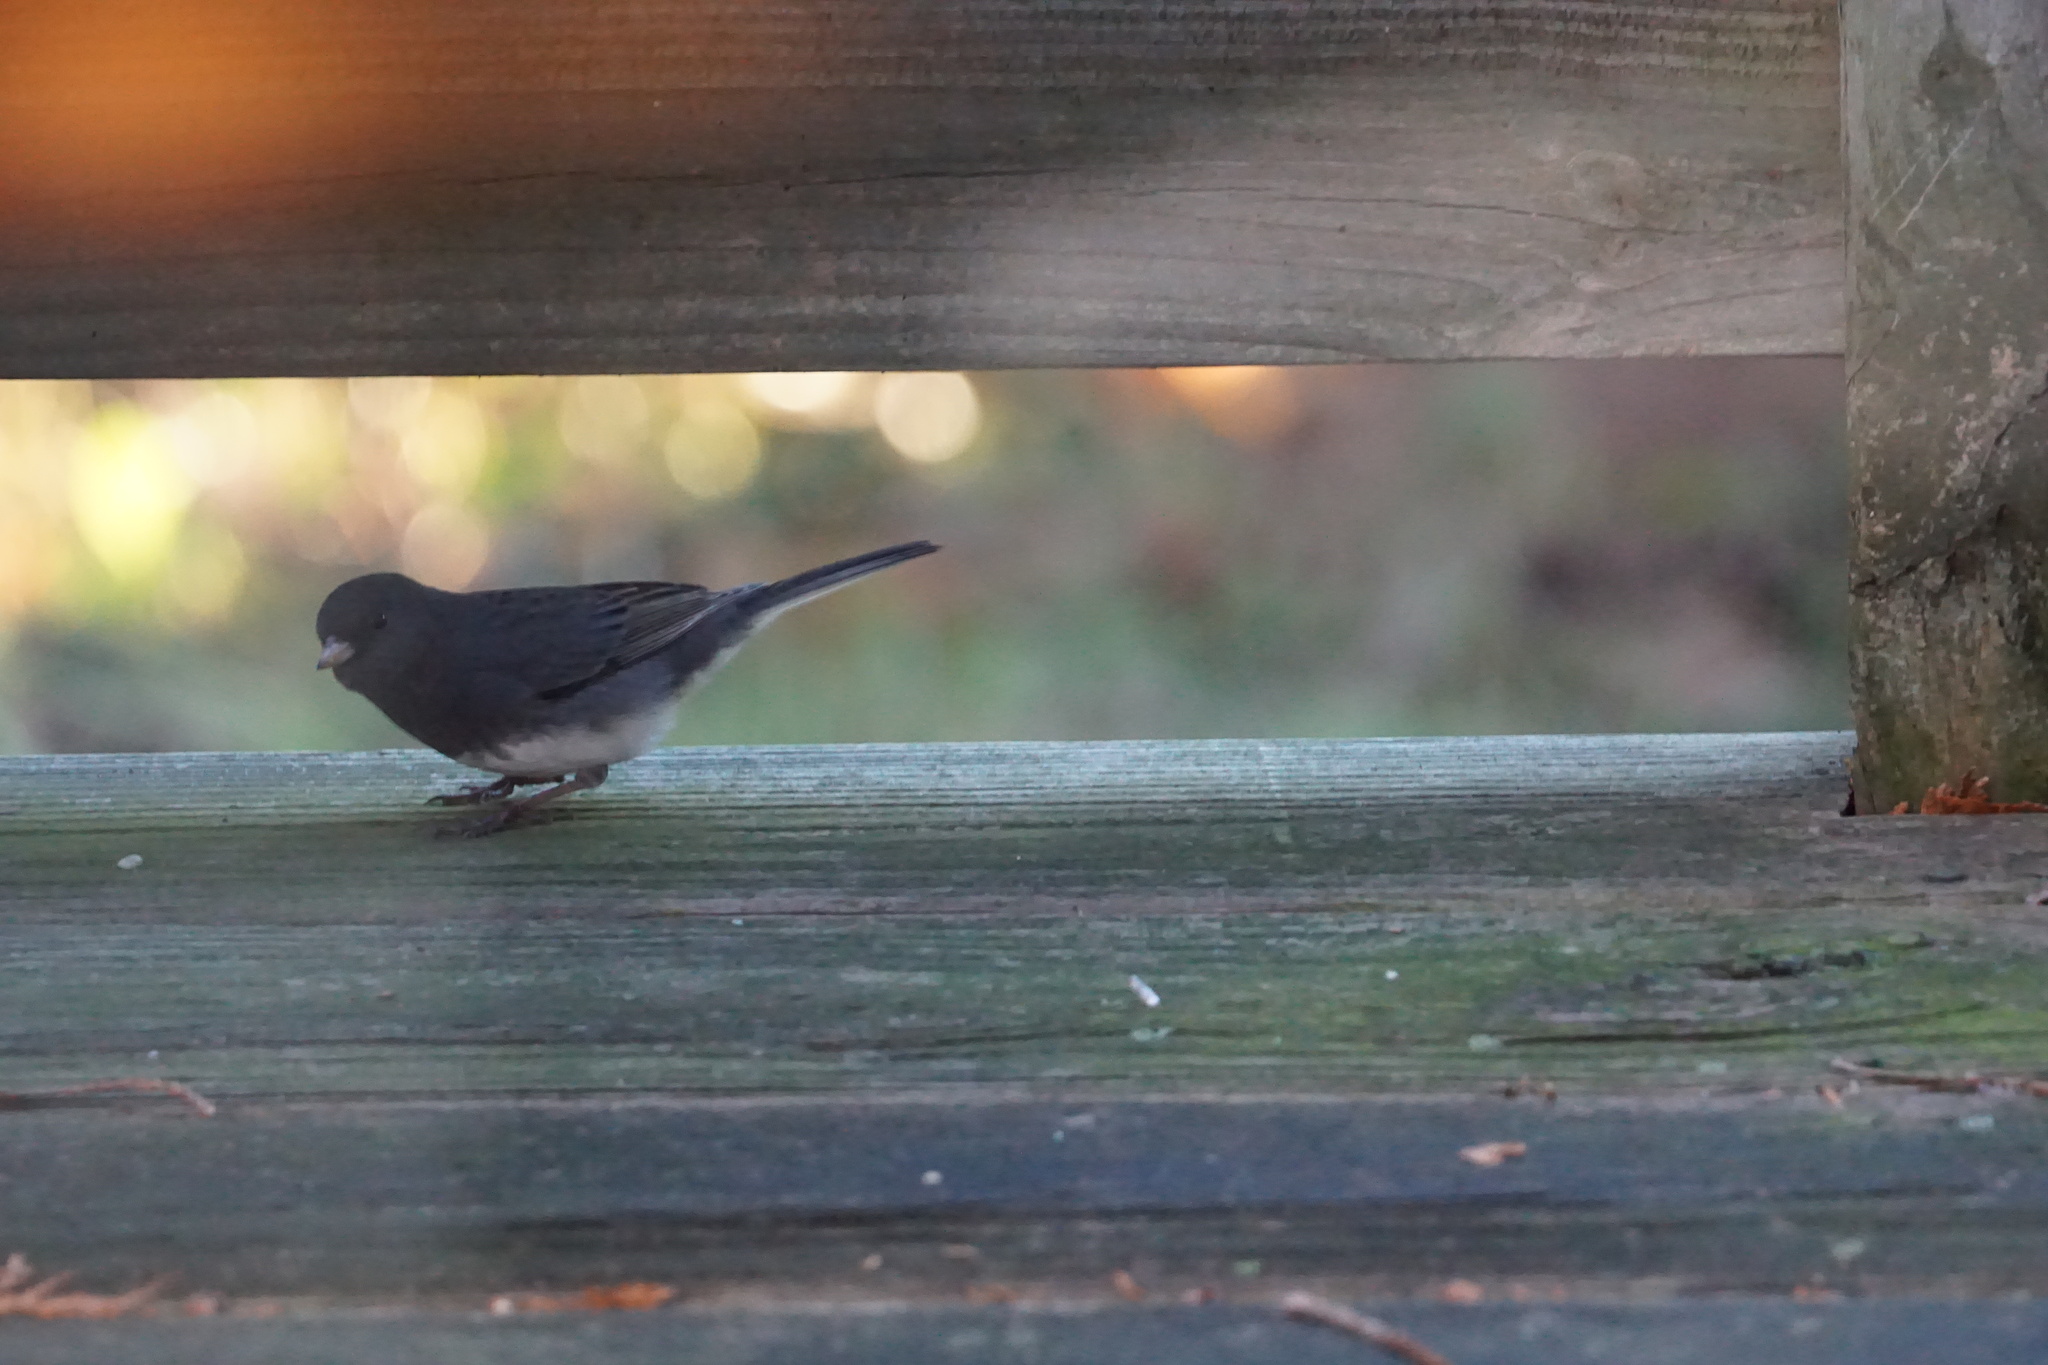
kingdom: Animalia
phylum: Chordata
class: Aves
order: Passeriformes
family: Passerellidae
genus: Junco
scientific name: Junco hyemalis
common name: Dark-eyed junco
